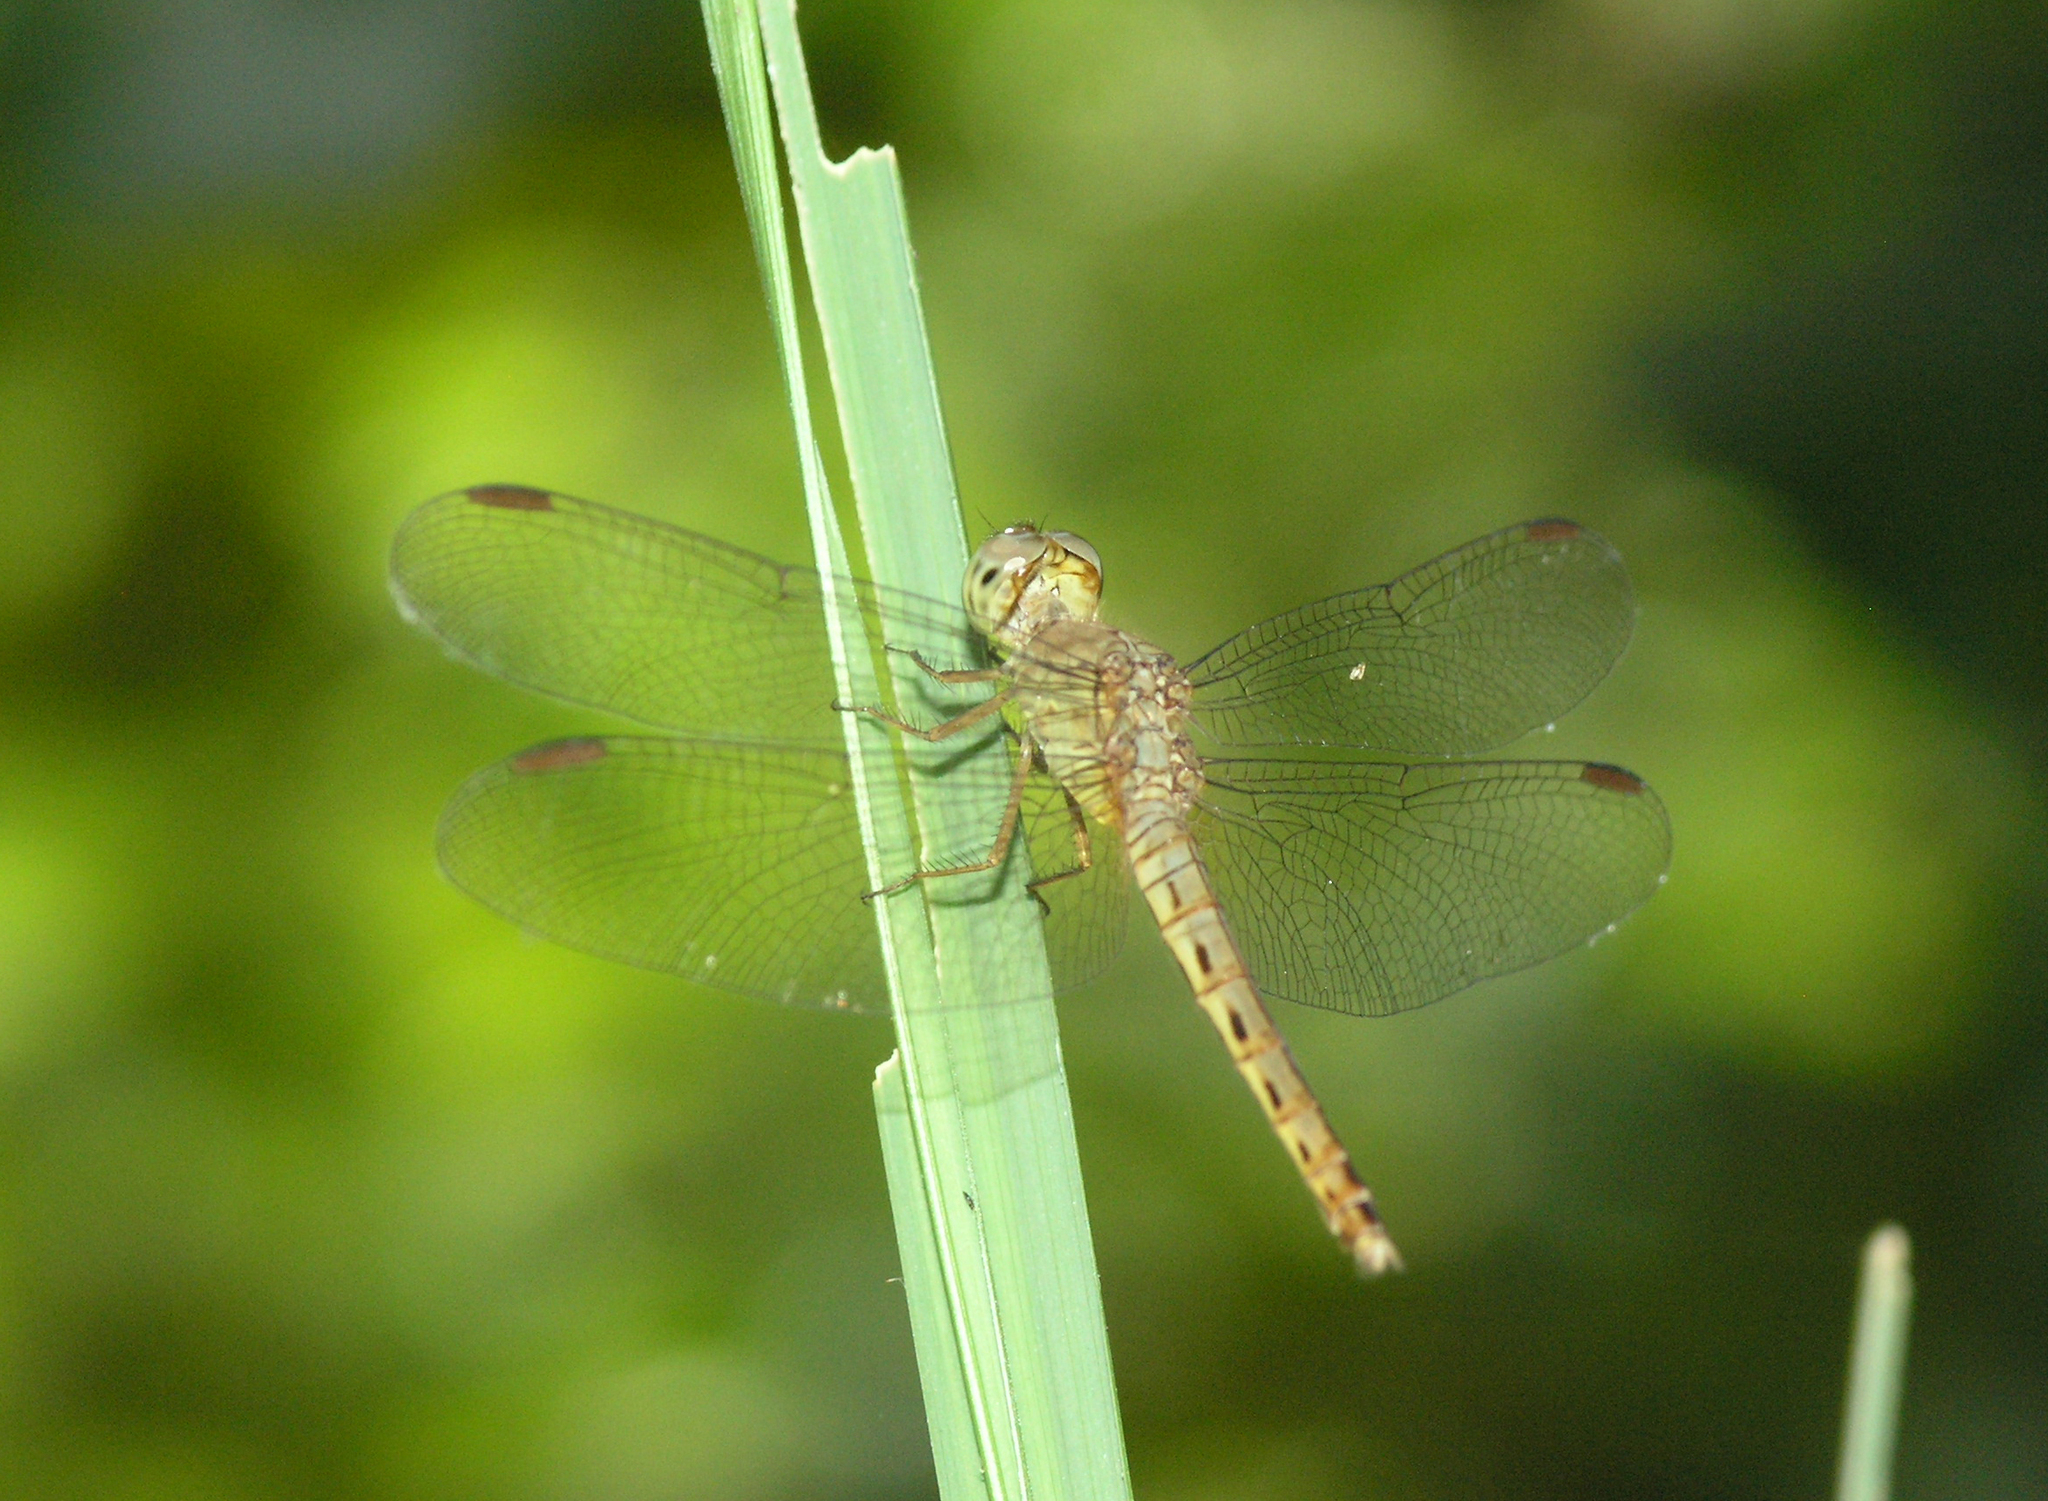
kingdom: Animalia
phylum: Arthropoda
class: Insecta
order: Odonata
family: Libellulidae
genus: Neurothemis
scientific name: Neurothemis fluctuans
